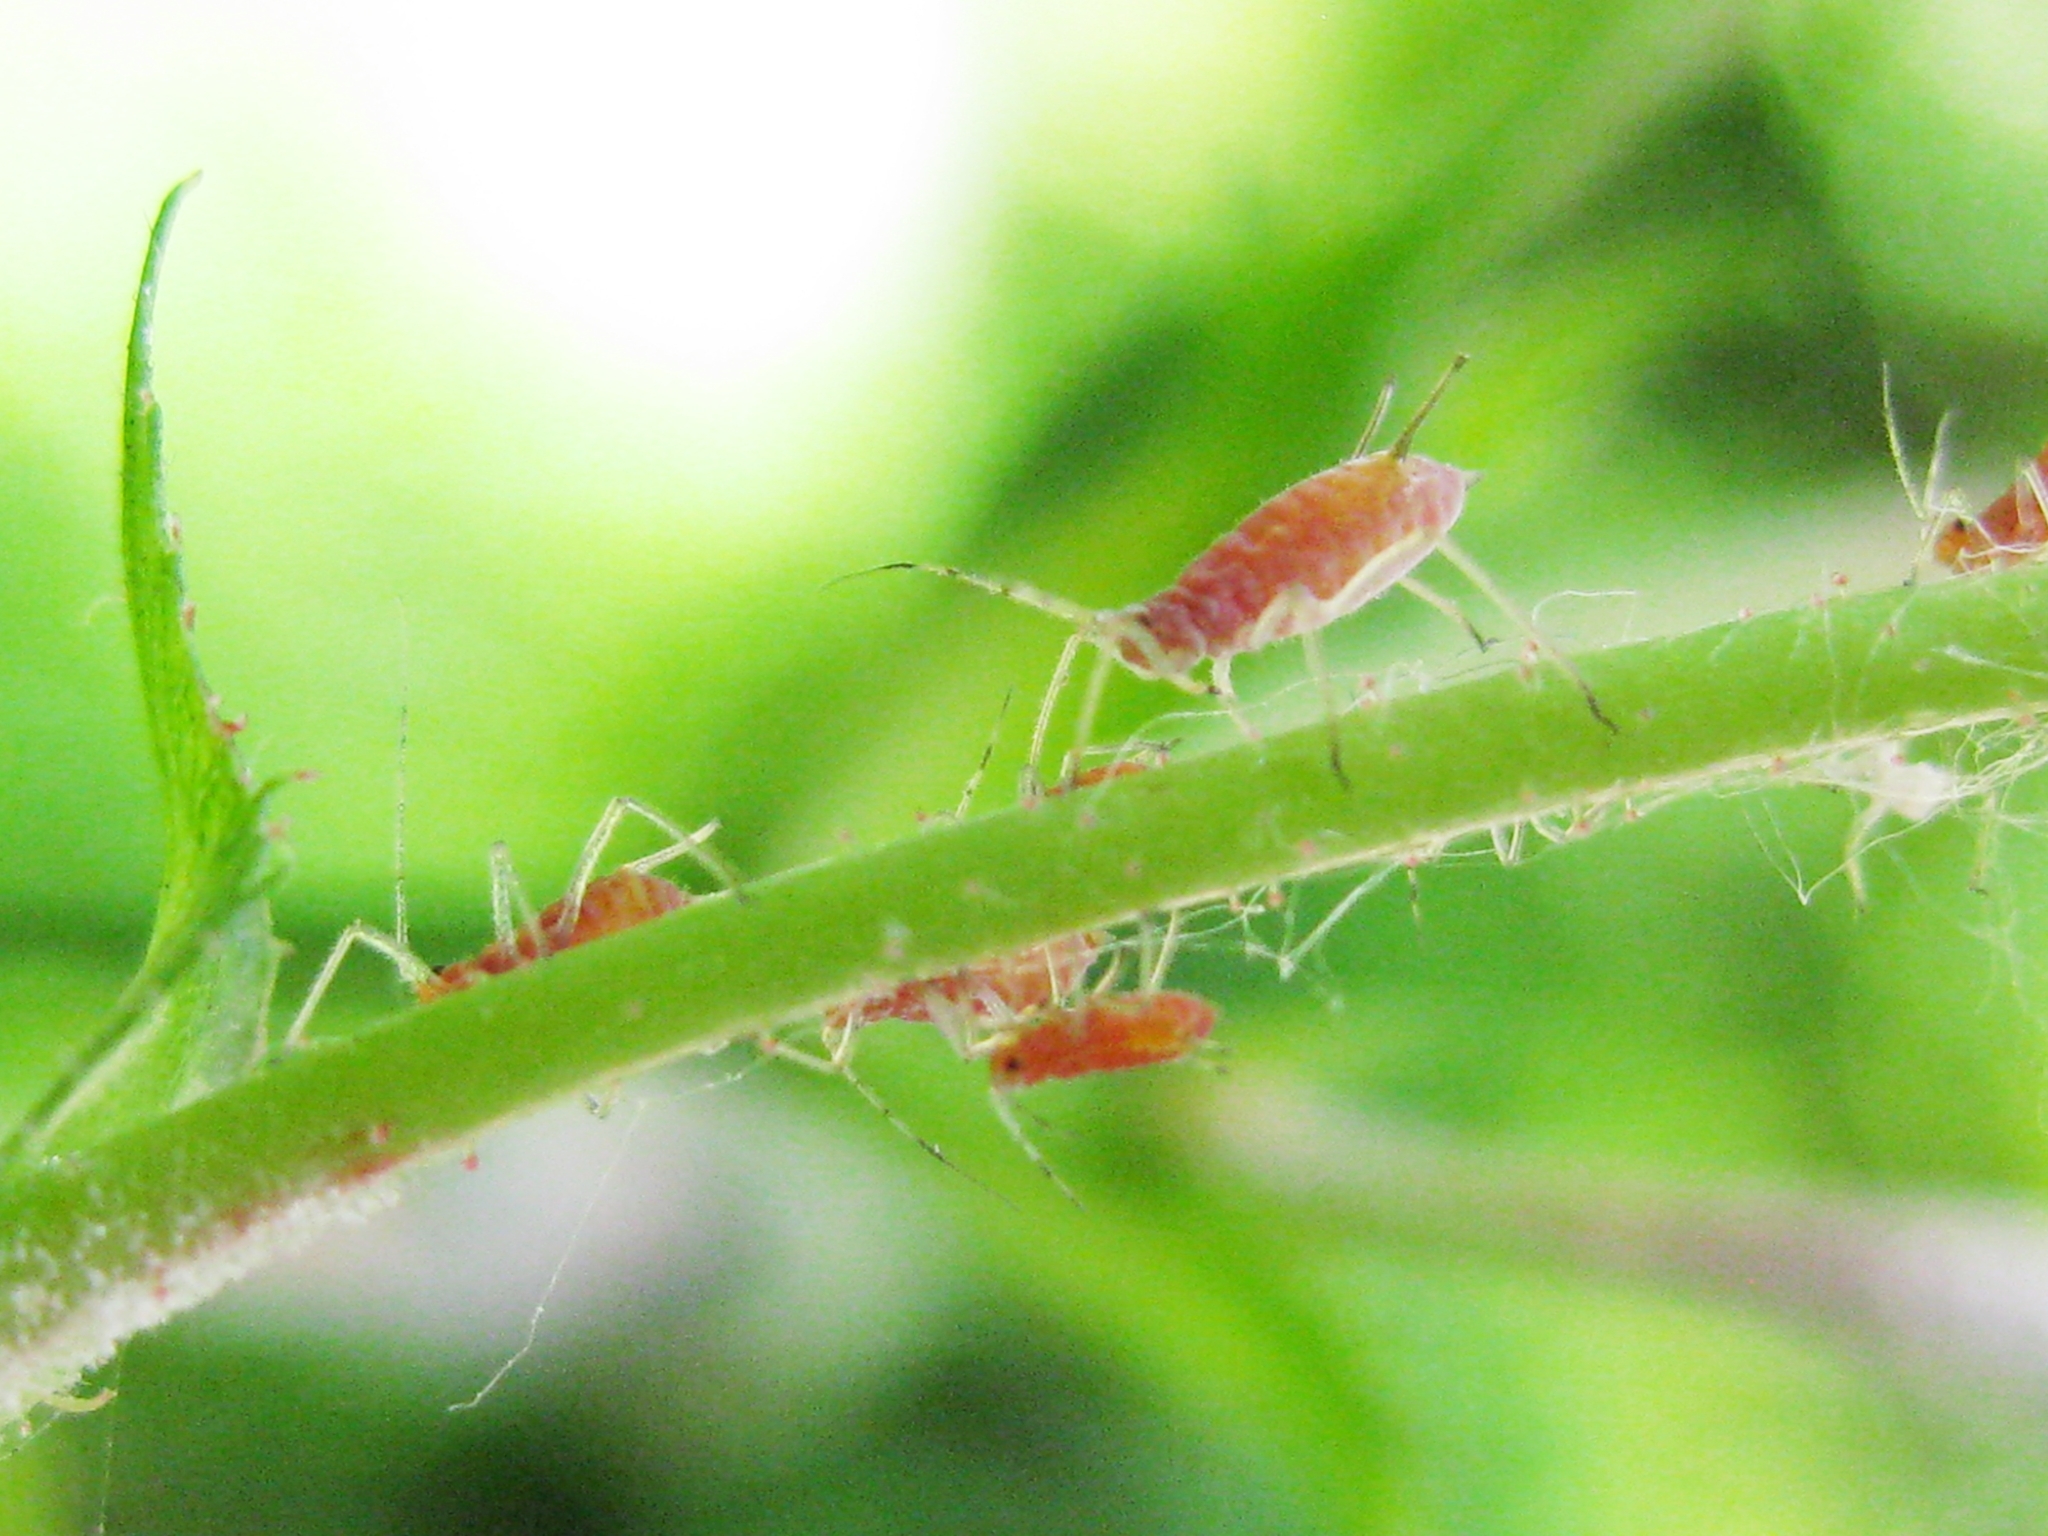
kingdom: Animalia
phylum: Arthropoda
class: Insecta
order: Hemiptera
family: Aphididae
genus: Macrosiphum
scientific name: Macrosiphum
